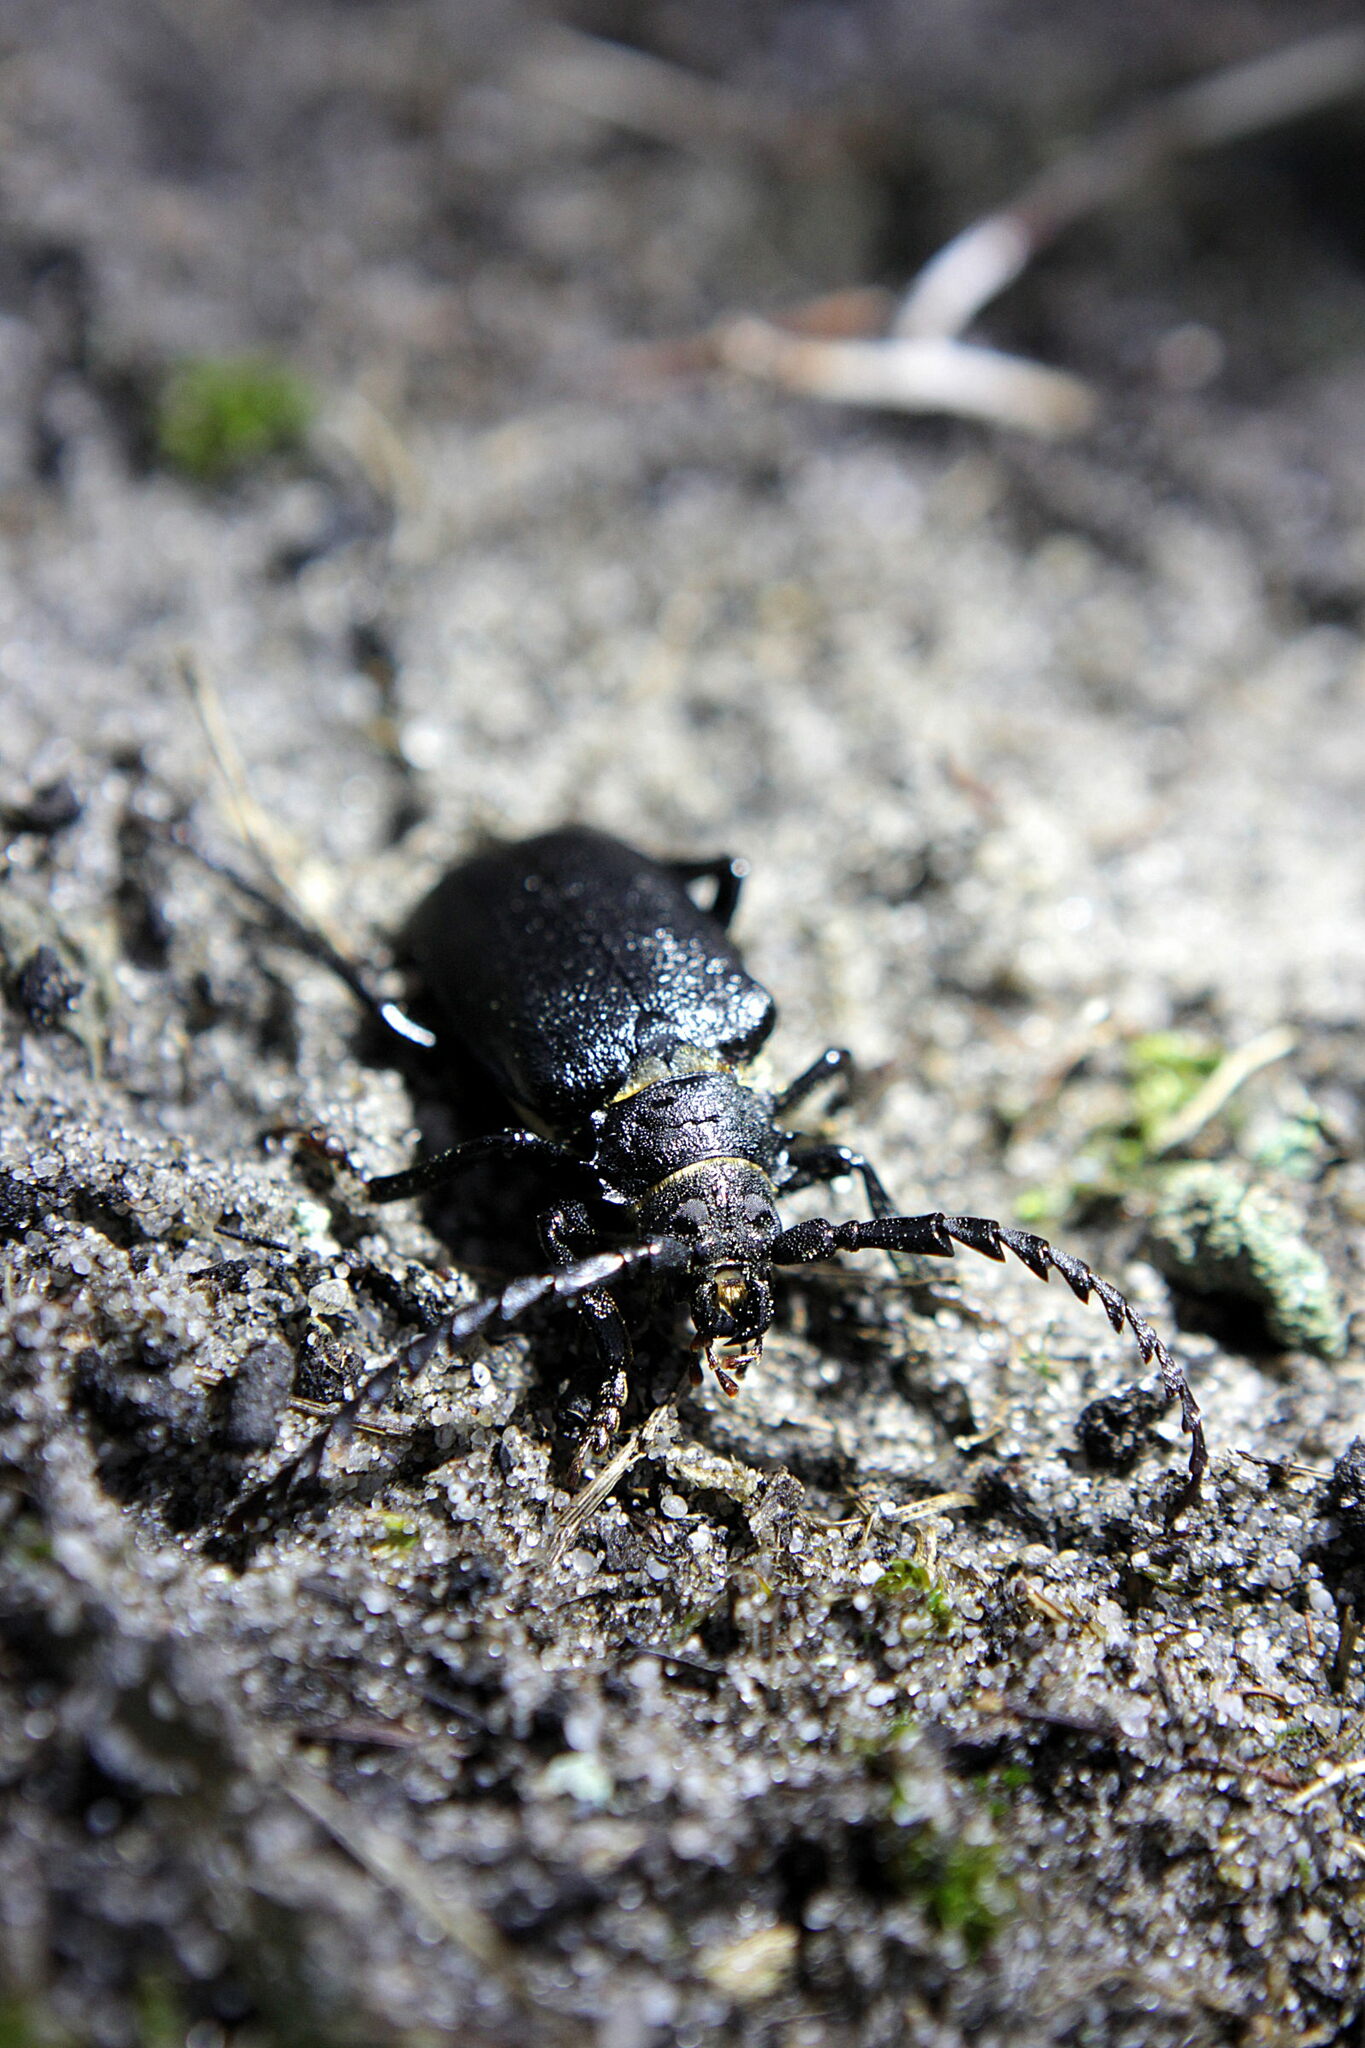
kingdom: Animalia
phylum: Arthropoda
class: Insecta
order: Coleoptera
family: Cerambycidae
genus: Prionus
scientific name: Prionus coriarius
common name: Tanner beetle
